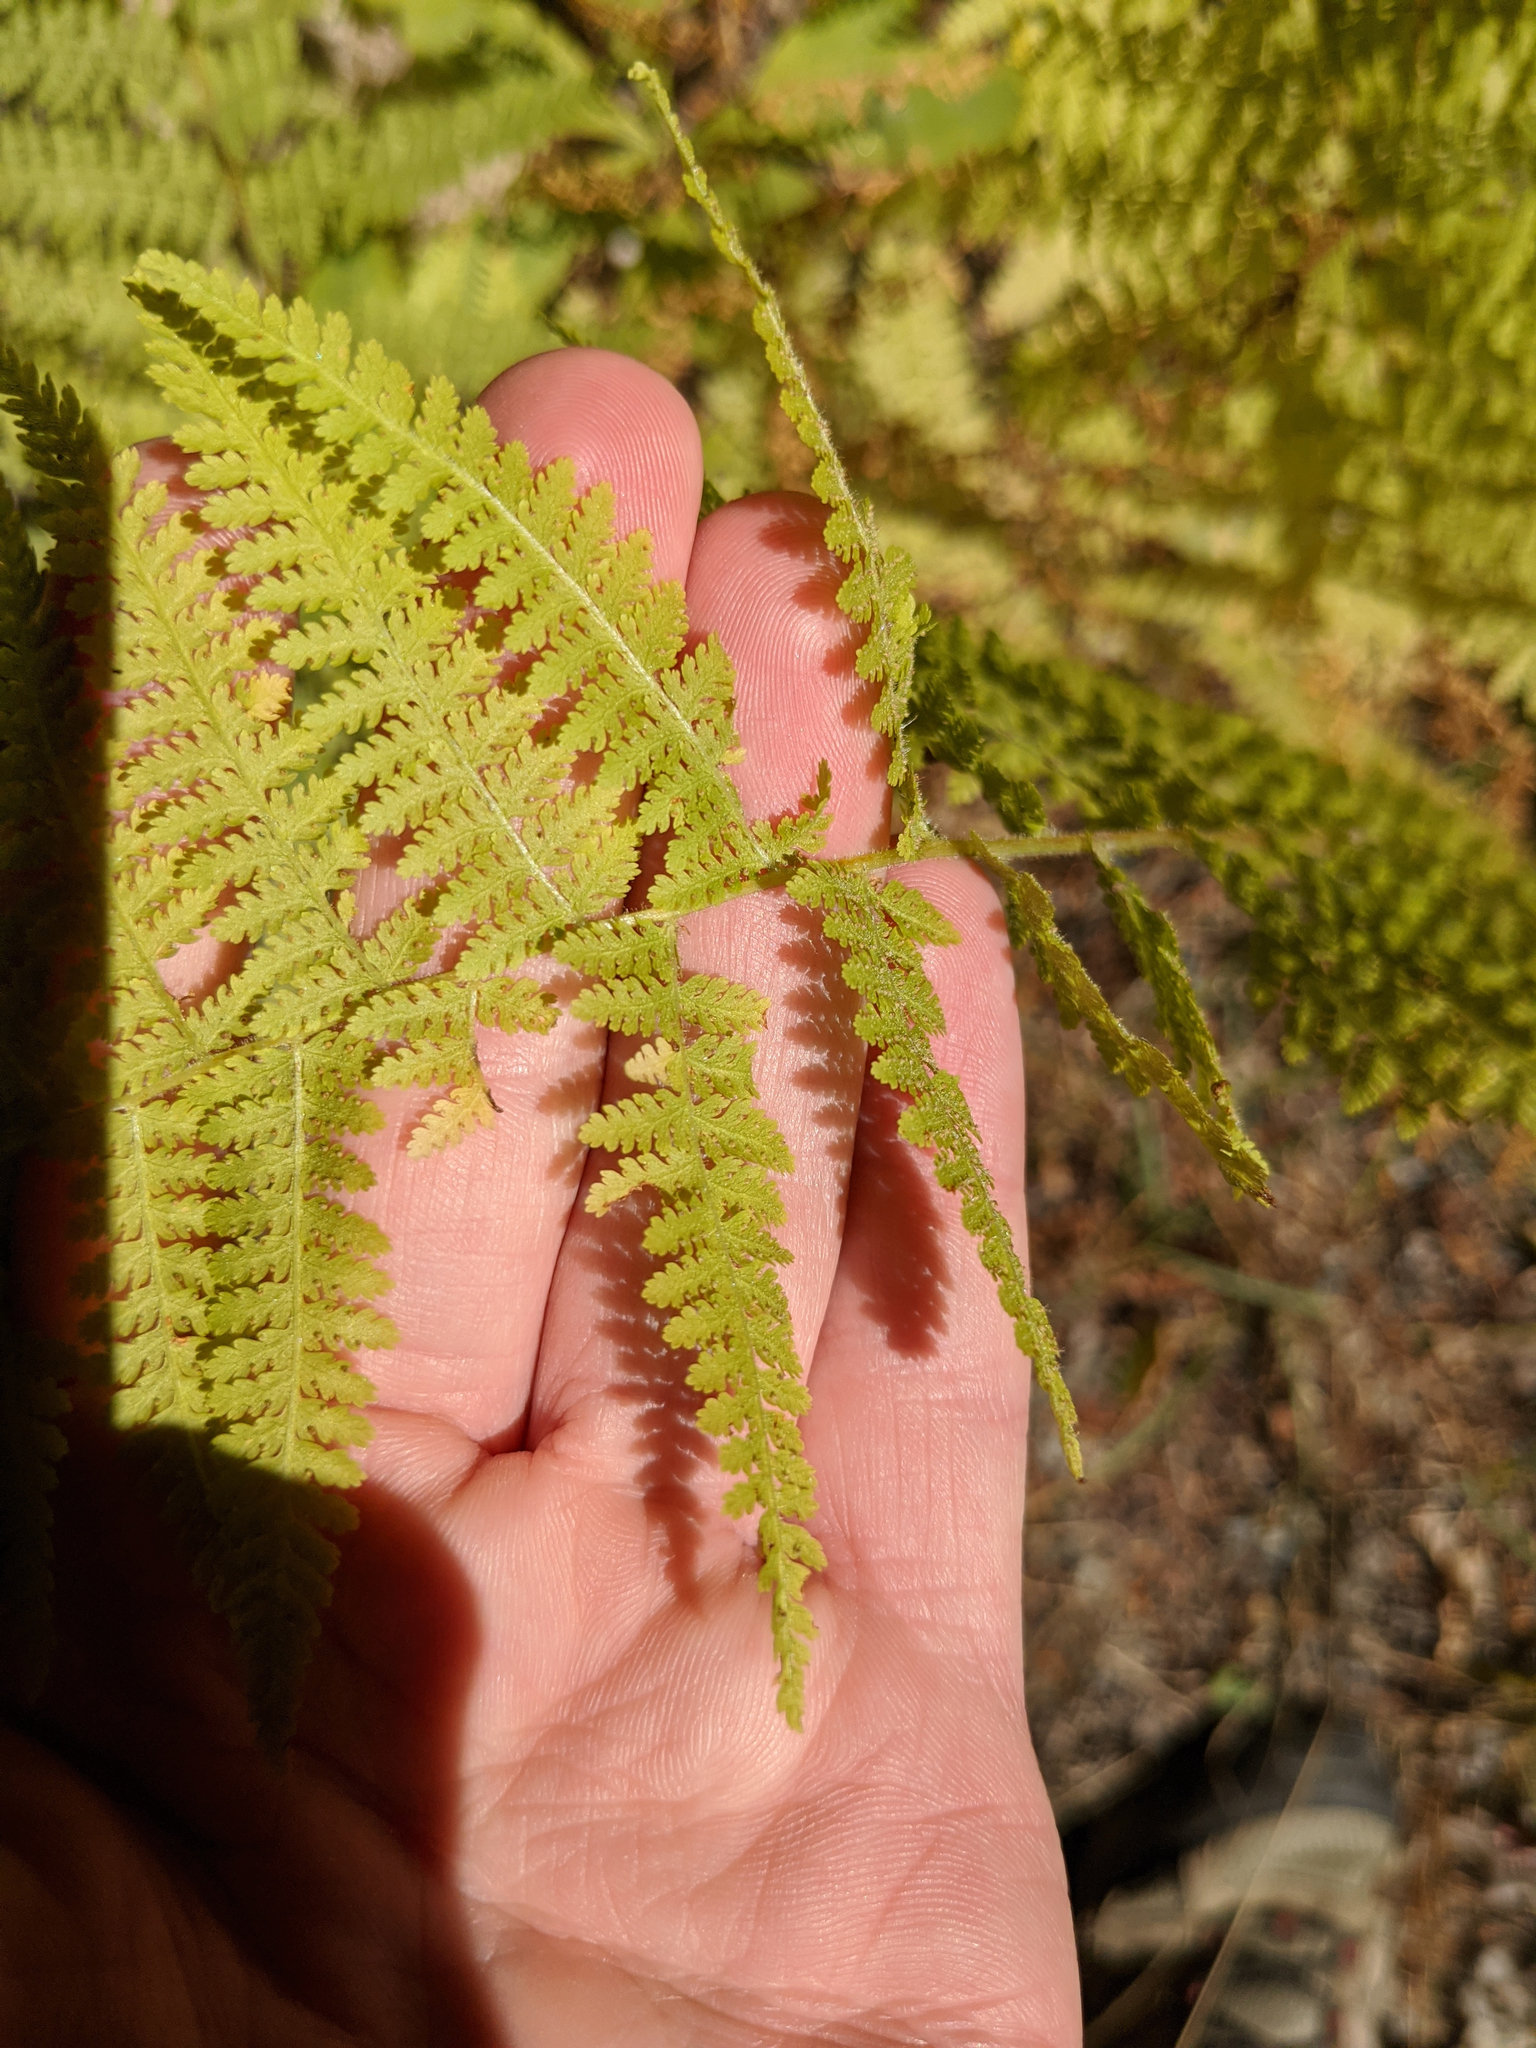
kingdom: Plantae
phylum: Tracheophyta
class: Polypodiopsida
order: Polypodiales
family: Dennstaedtiaceae
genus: Sitobolium
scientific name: Sitobolium punctilobum
